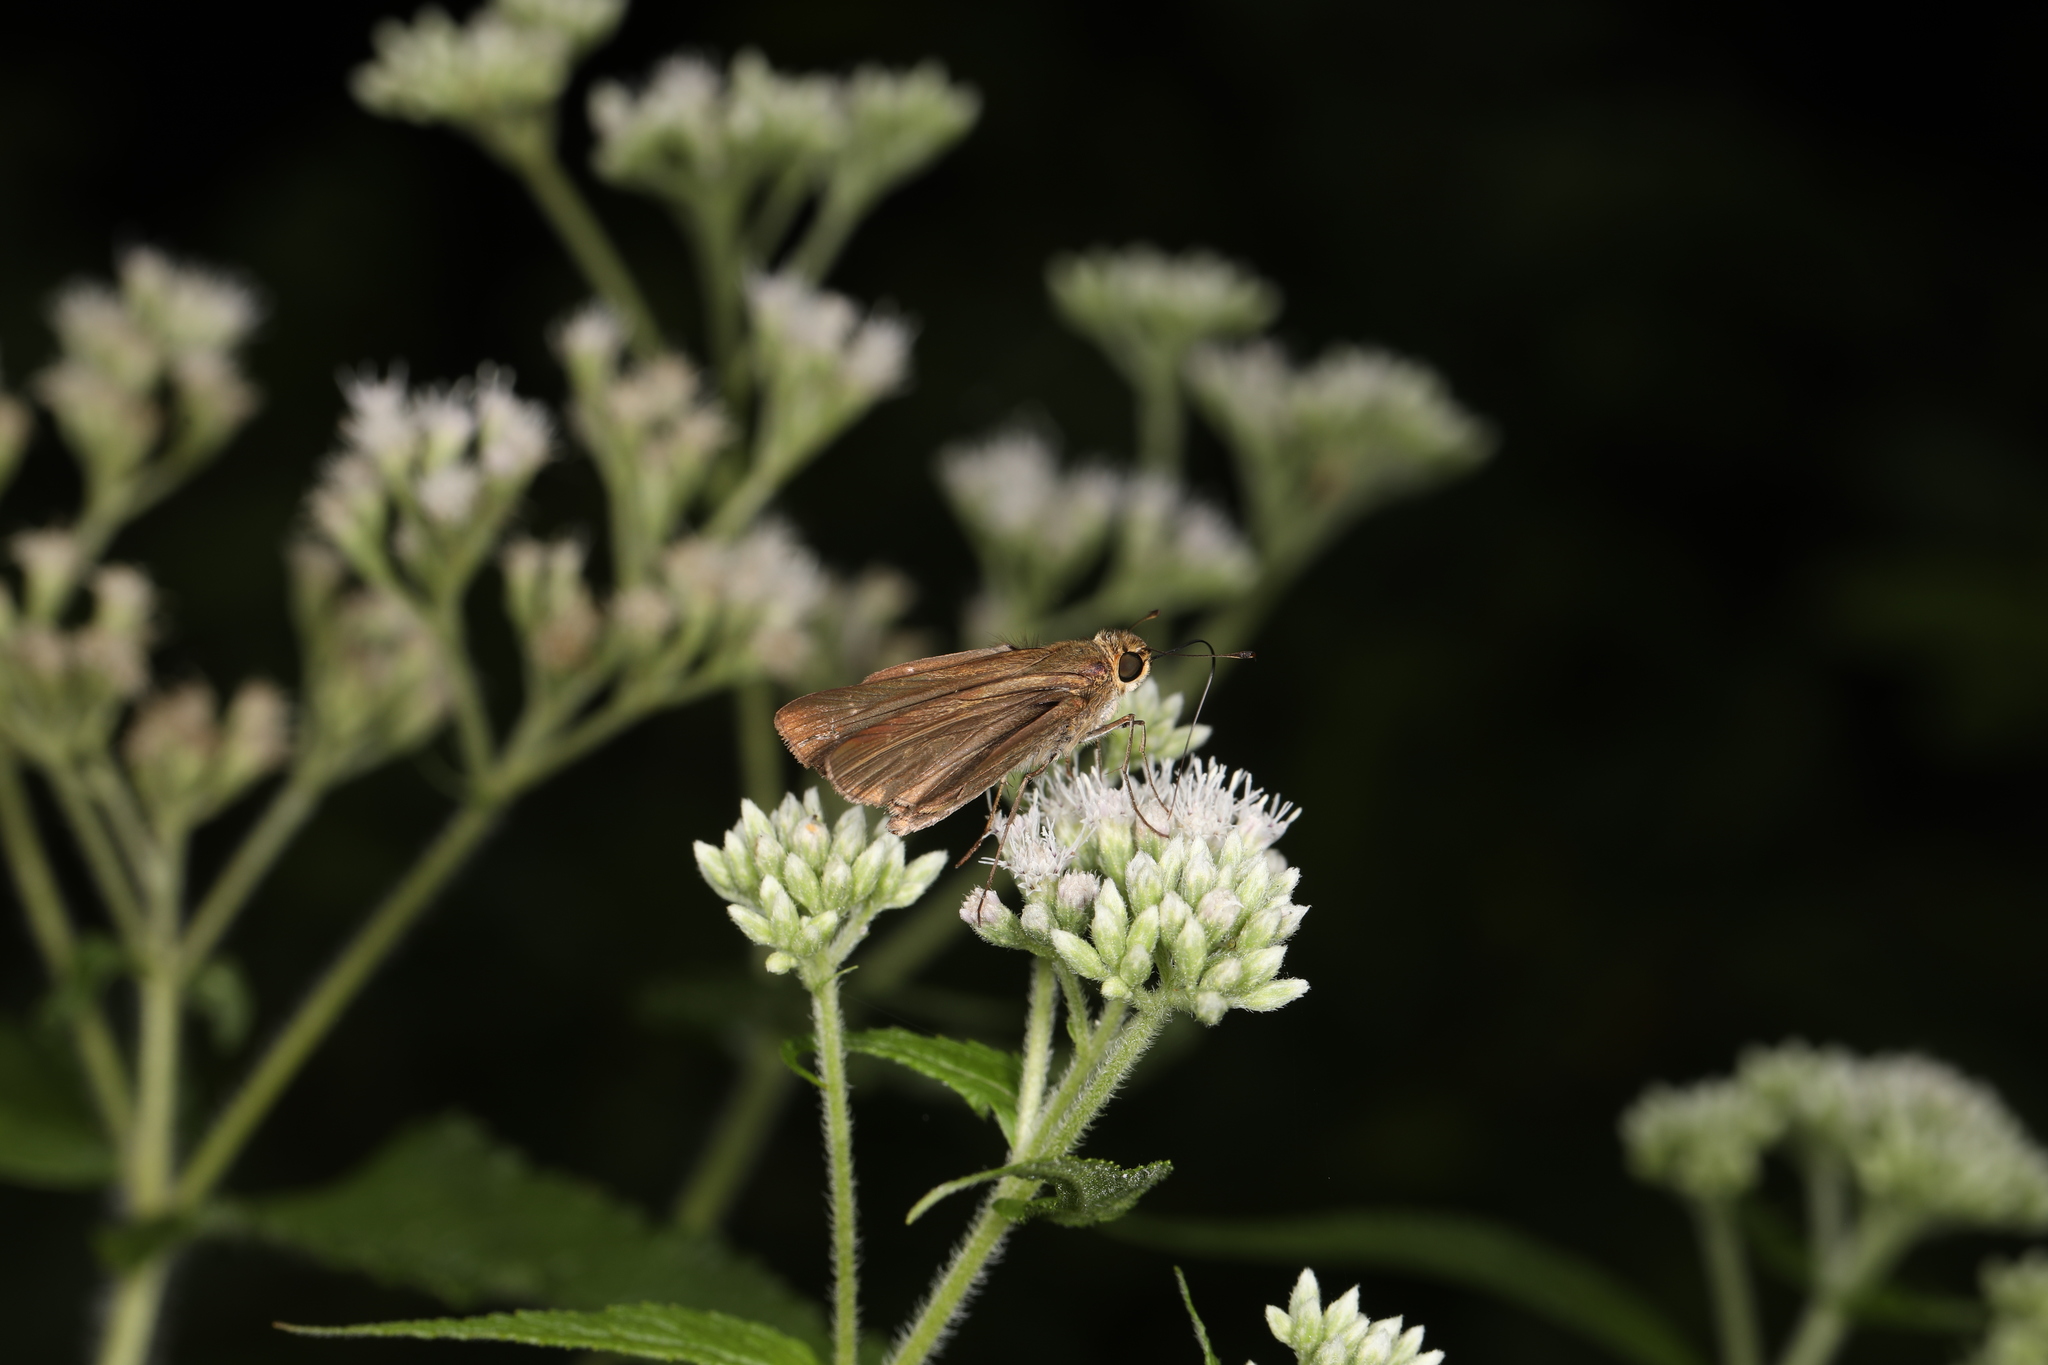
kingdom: Animalia
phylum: Arthropoda
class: Insecta
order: Lepidoptera
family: Hesperiidae
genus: Panoquina
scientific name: Panoquina ocola
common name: Ocola skipper
